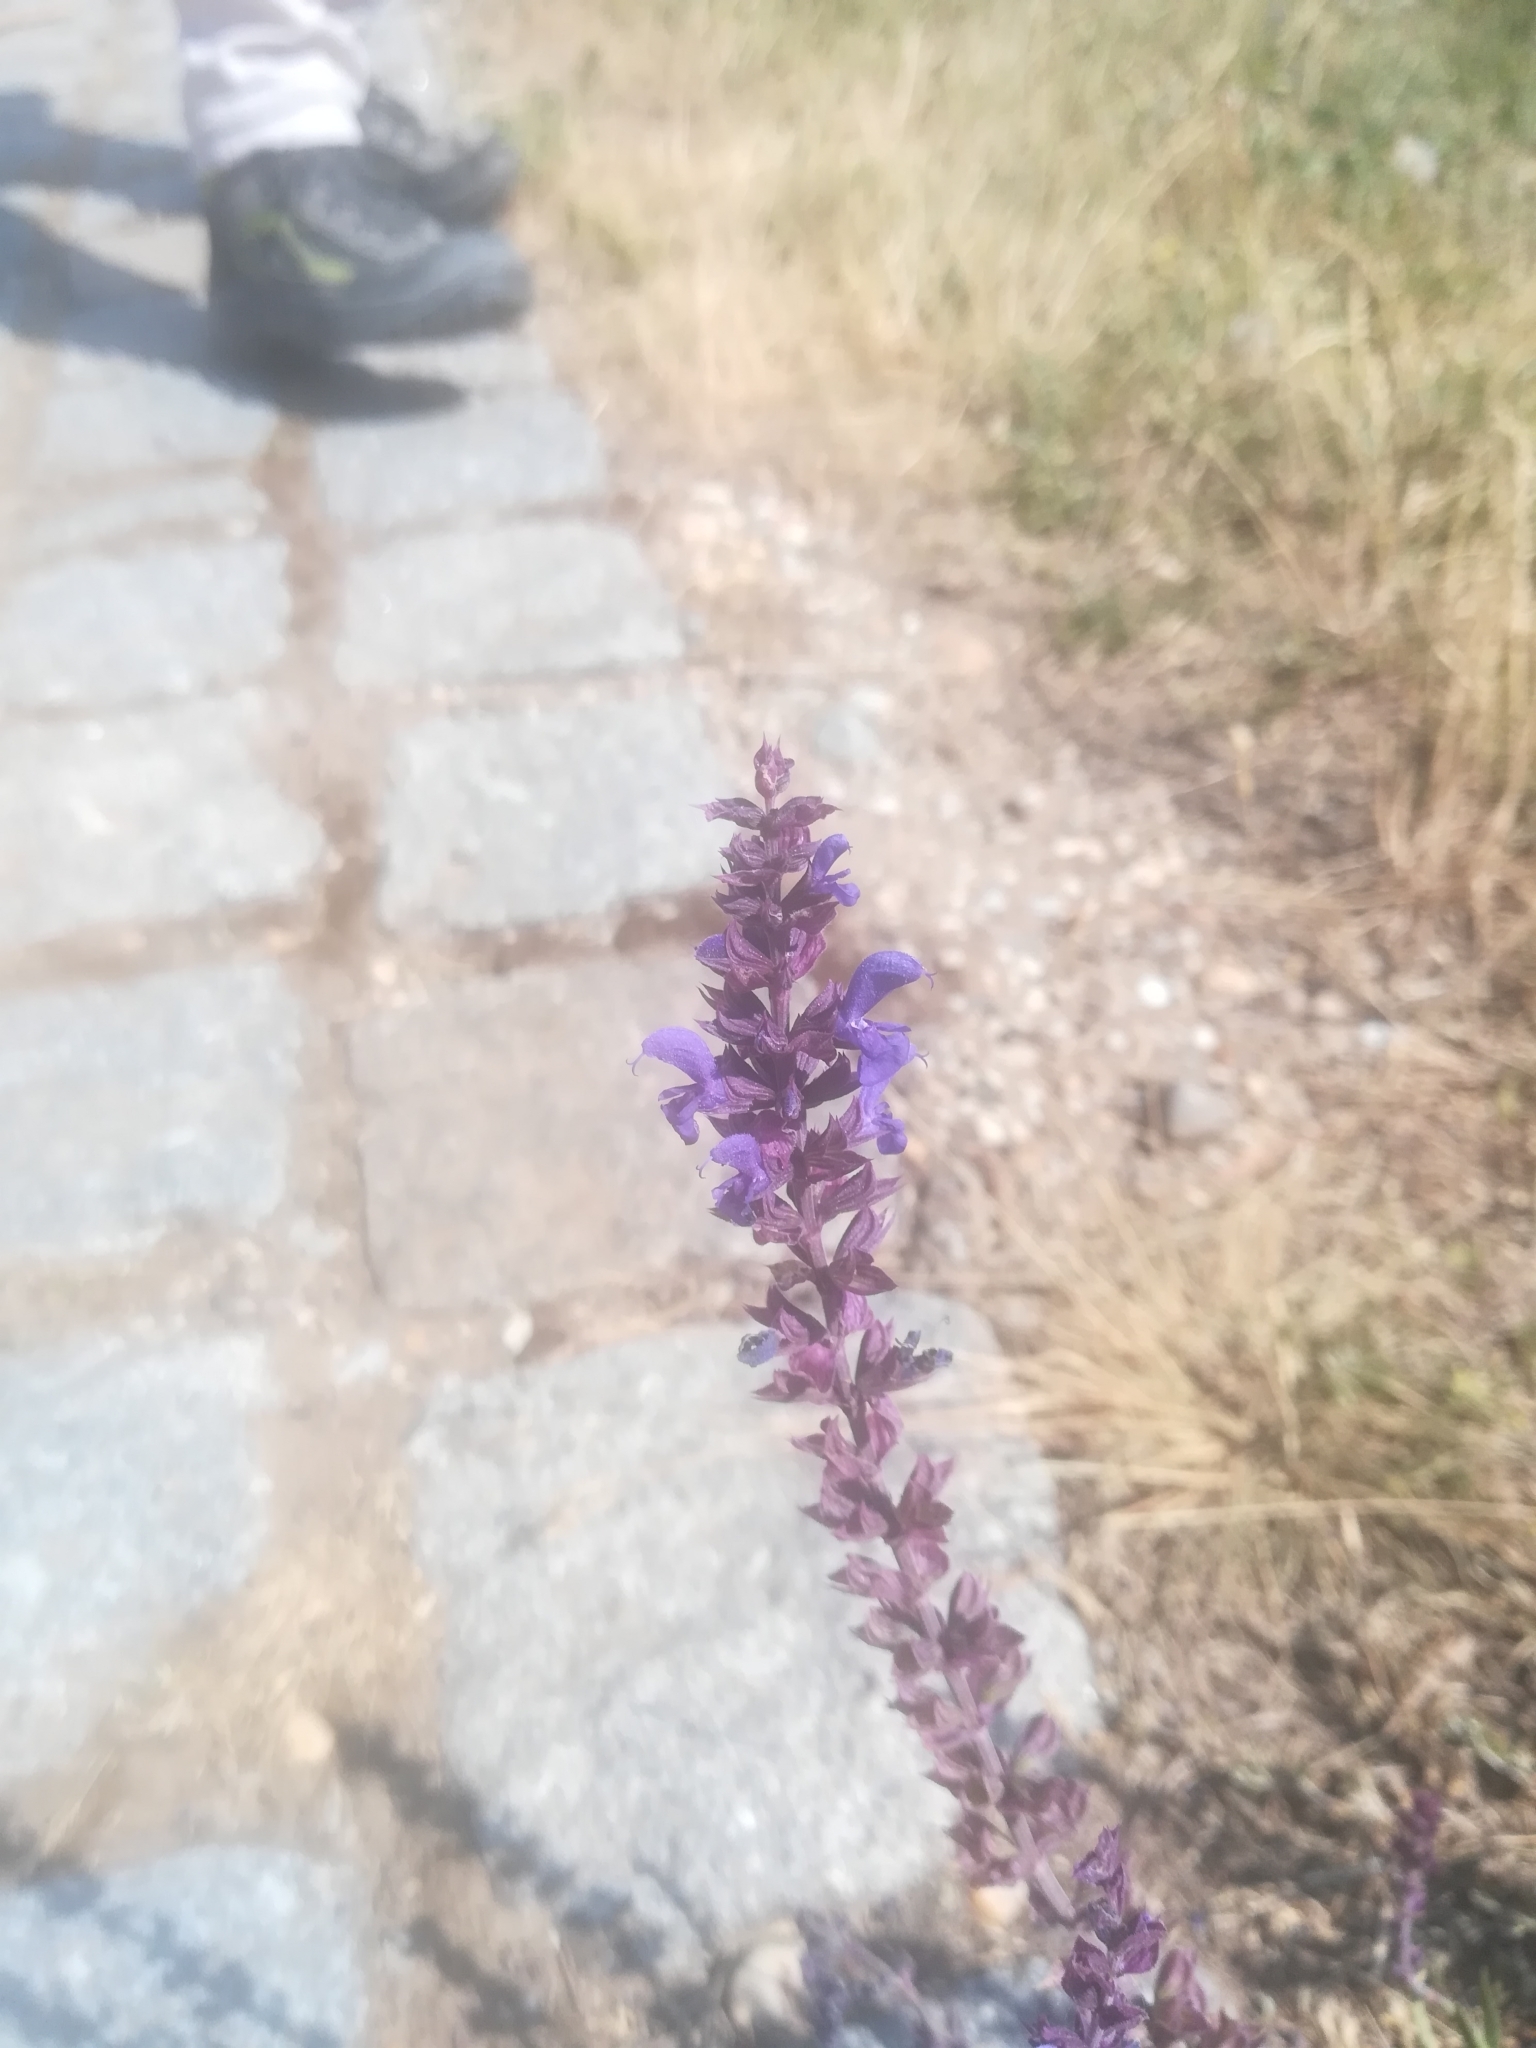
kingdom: Plantae
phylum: Tracheophyta
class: Magnoliopsida
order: Lamiales
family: Lamiaceae
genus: Salvia
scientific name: Salvia nemorosa
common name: Balkan clary
